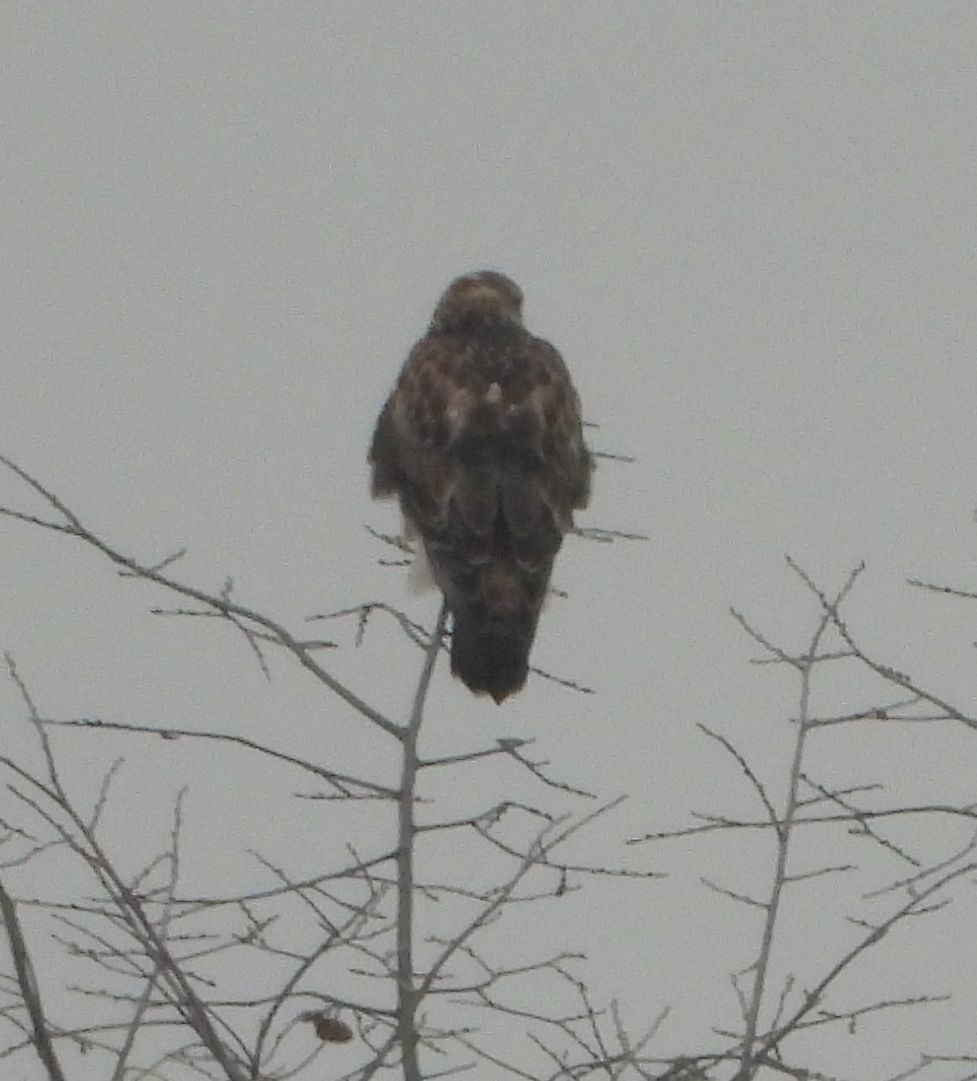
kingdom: Animalia
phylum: Chordata
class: Aves
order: Accipitriformes
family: Accipitridae
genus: Buteo
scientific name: Buteo lagopus
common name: Rough-legged buzzard
